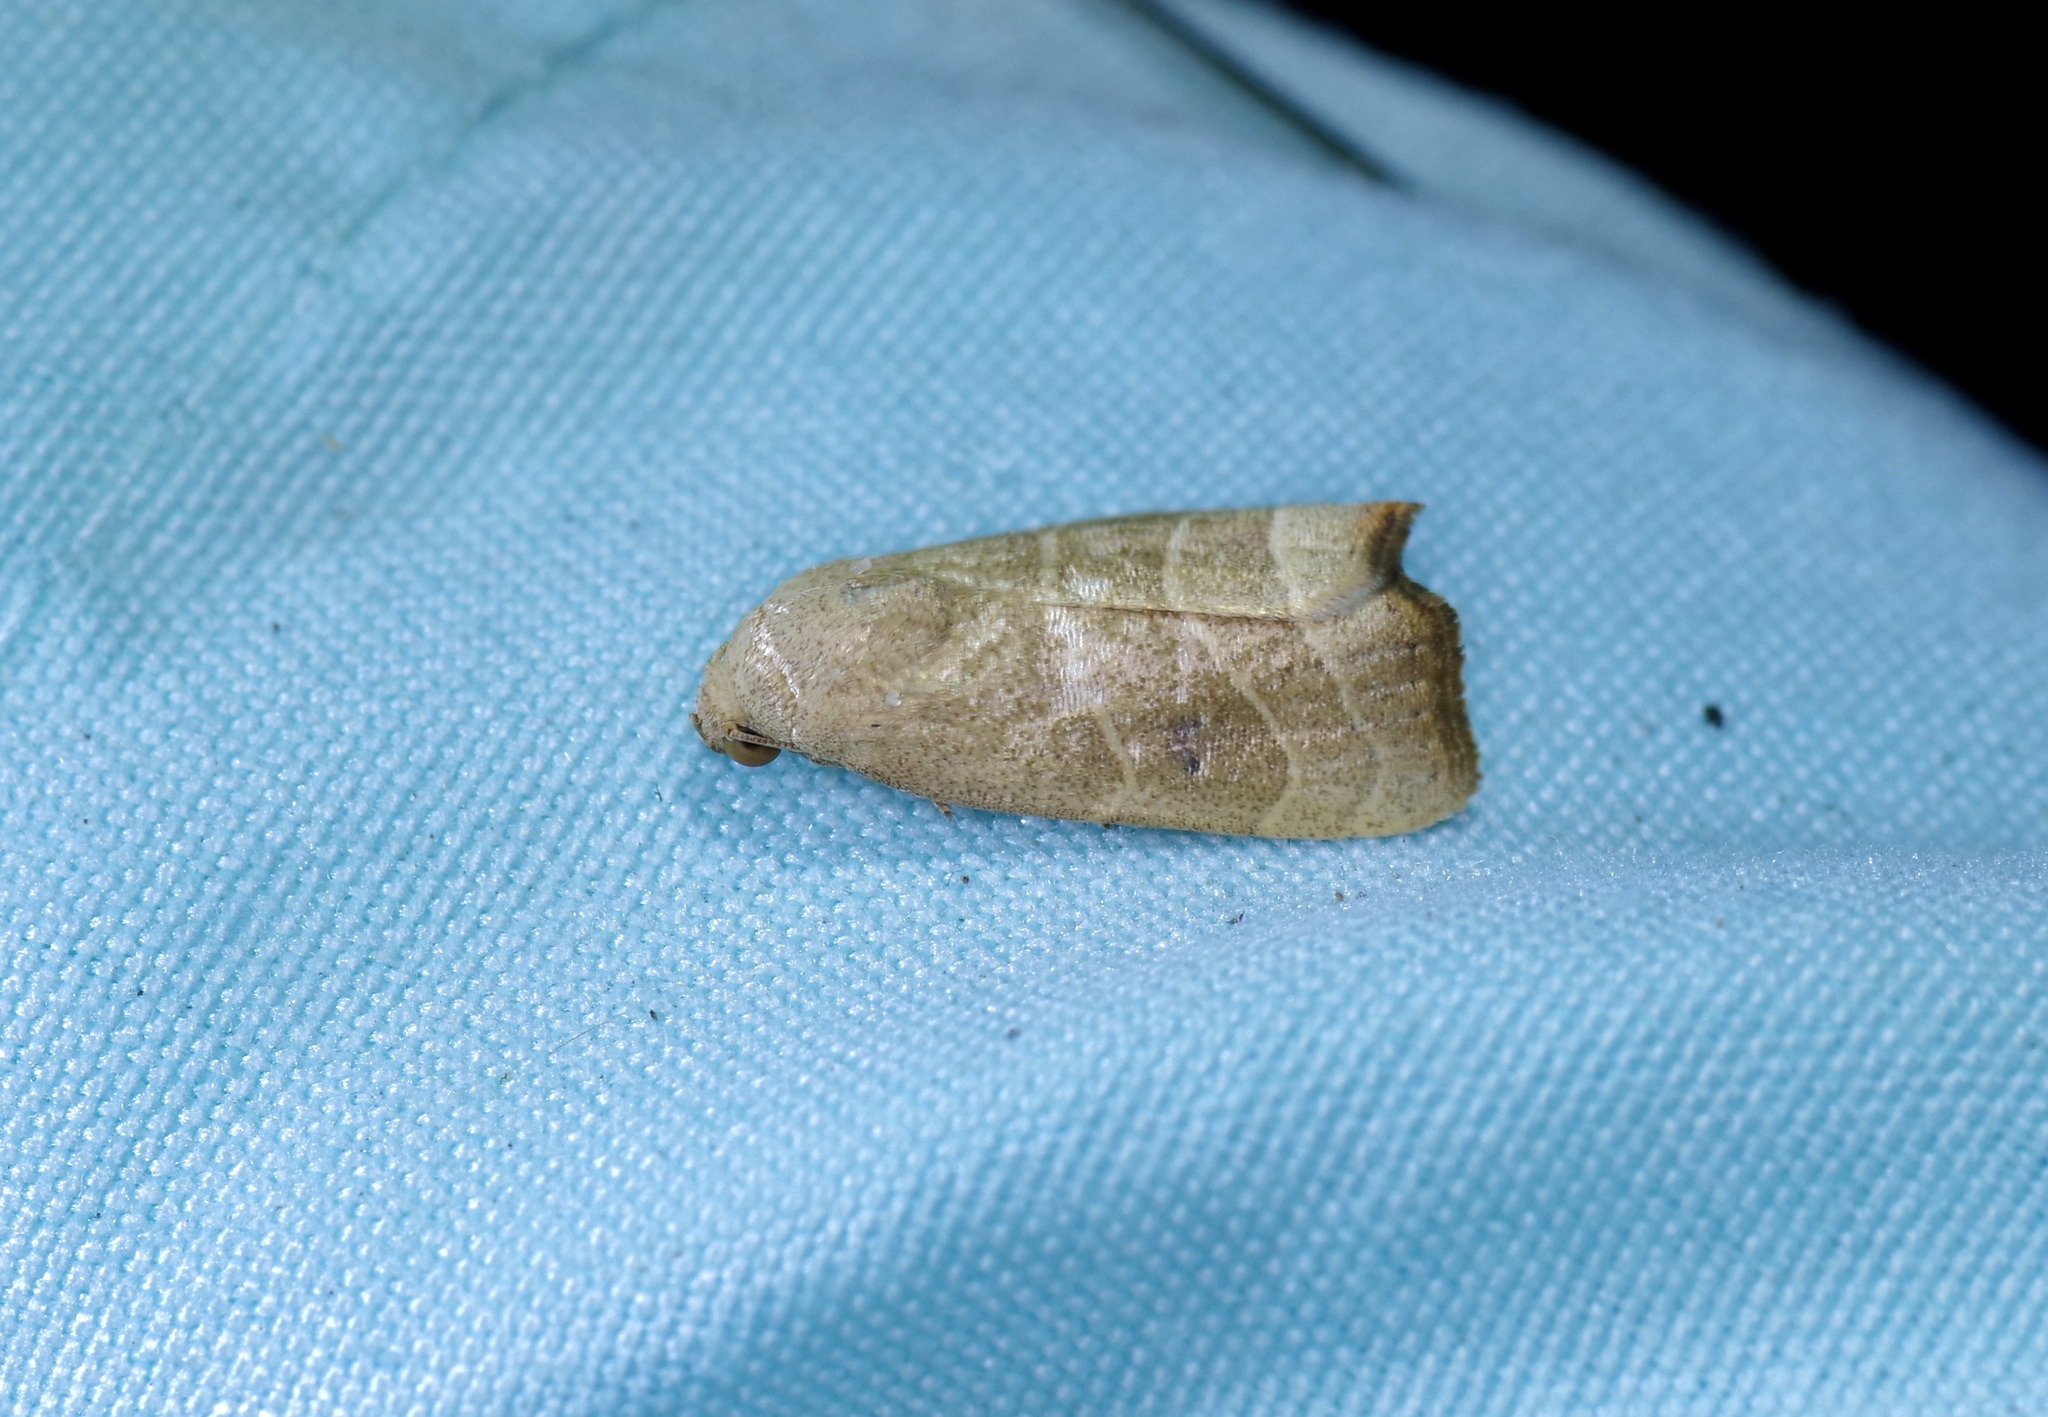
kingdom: Animalia
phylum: Arthropoda
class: Insecta
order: Lepidoptera
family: Noctuidae
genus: Bagisara
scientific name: Bagisara repanda
